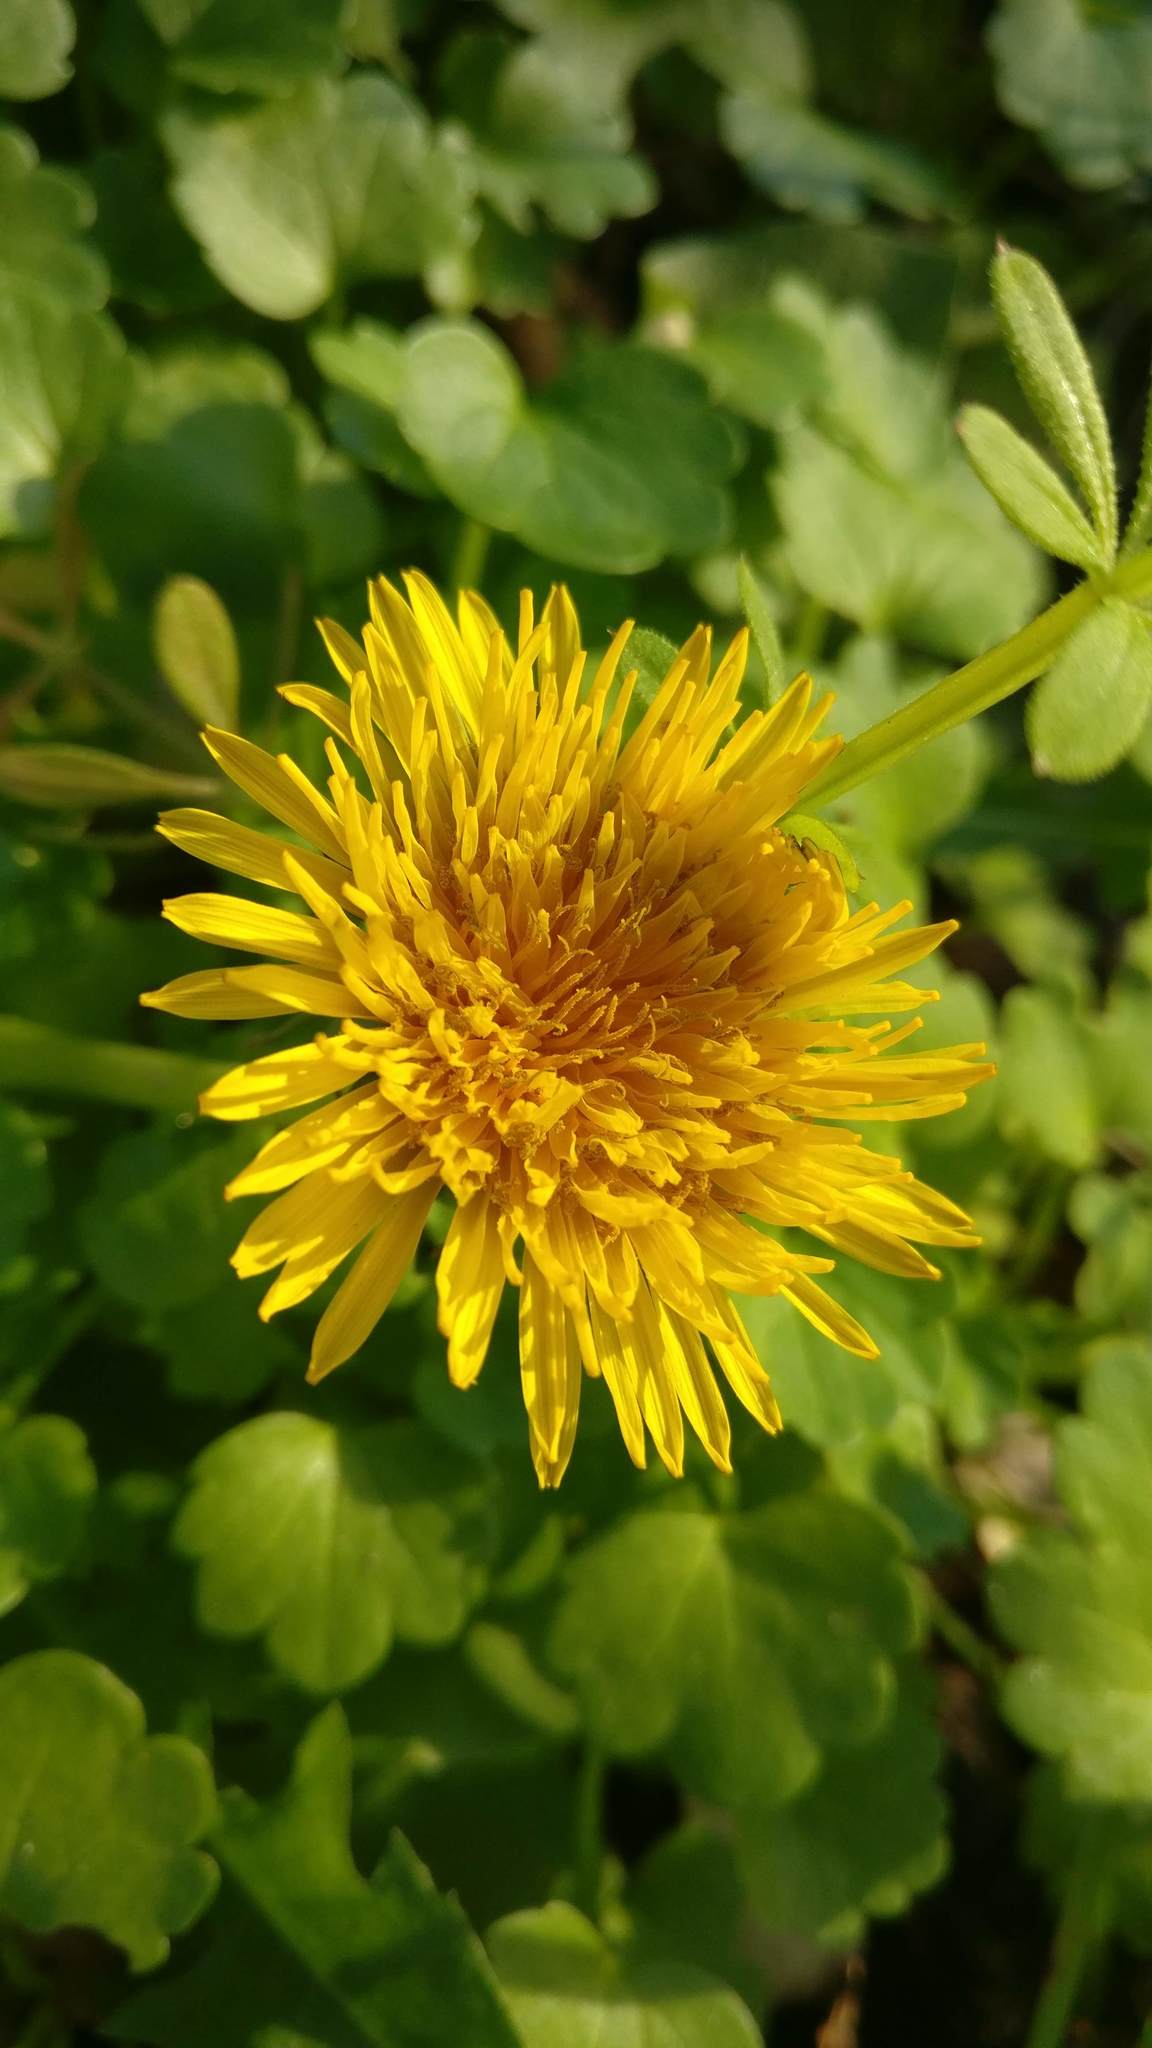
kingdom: Plantae
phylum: Tracheophyta
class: Magnoliopsida
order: Asterales
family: Asteraceae
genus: Taraxacum
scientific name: Taraxacum officinale
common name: Common dandelion
